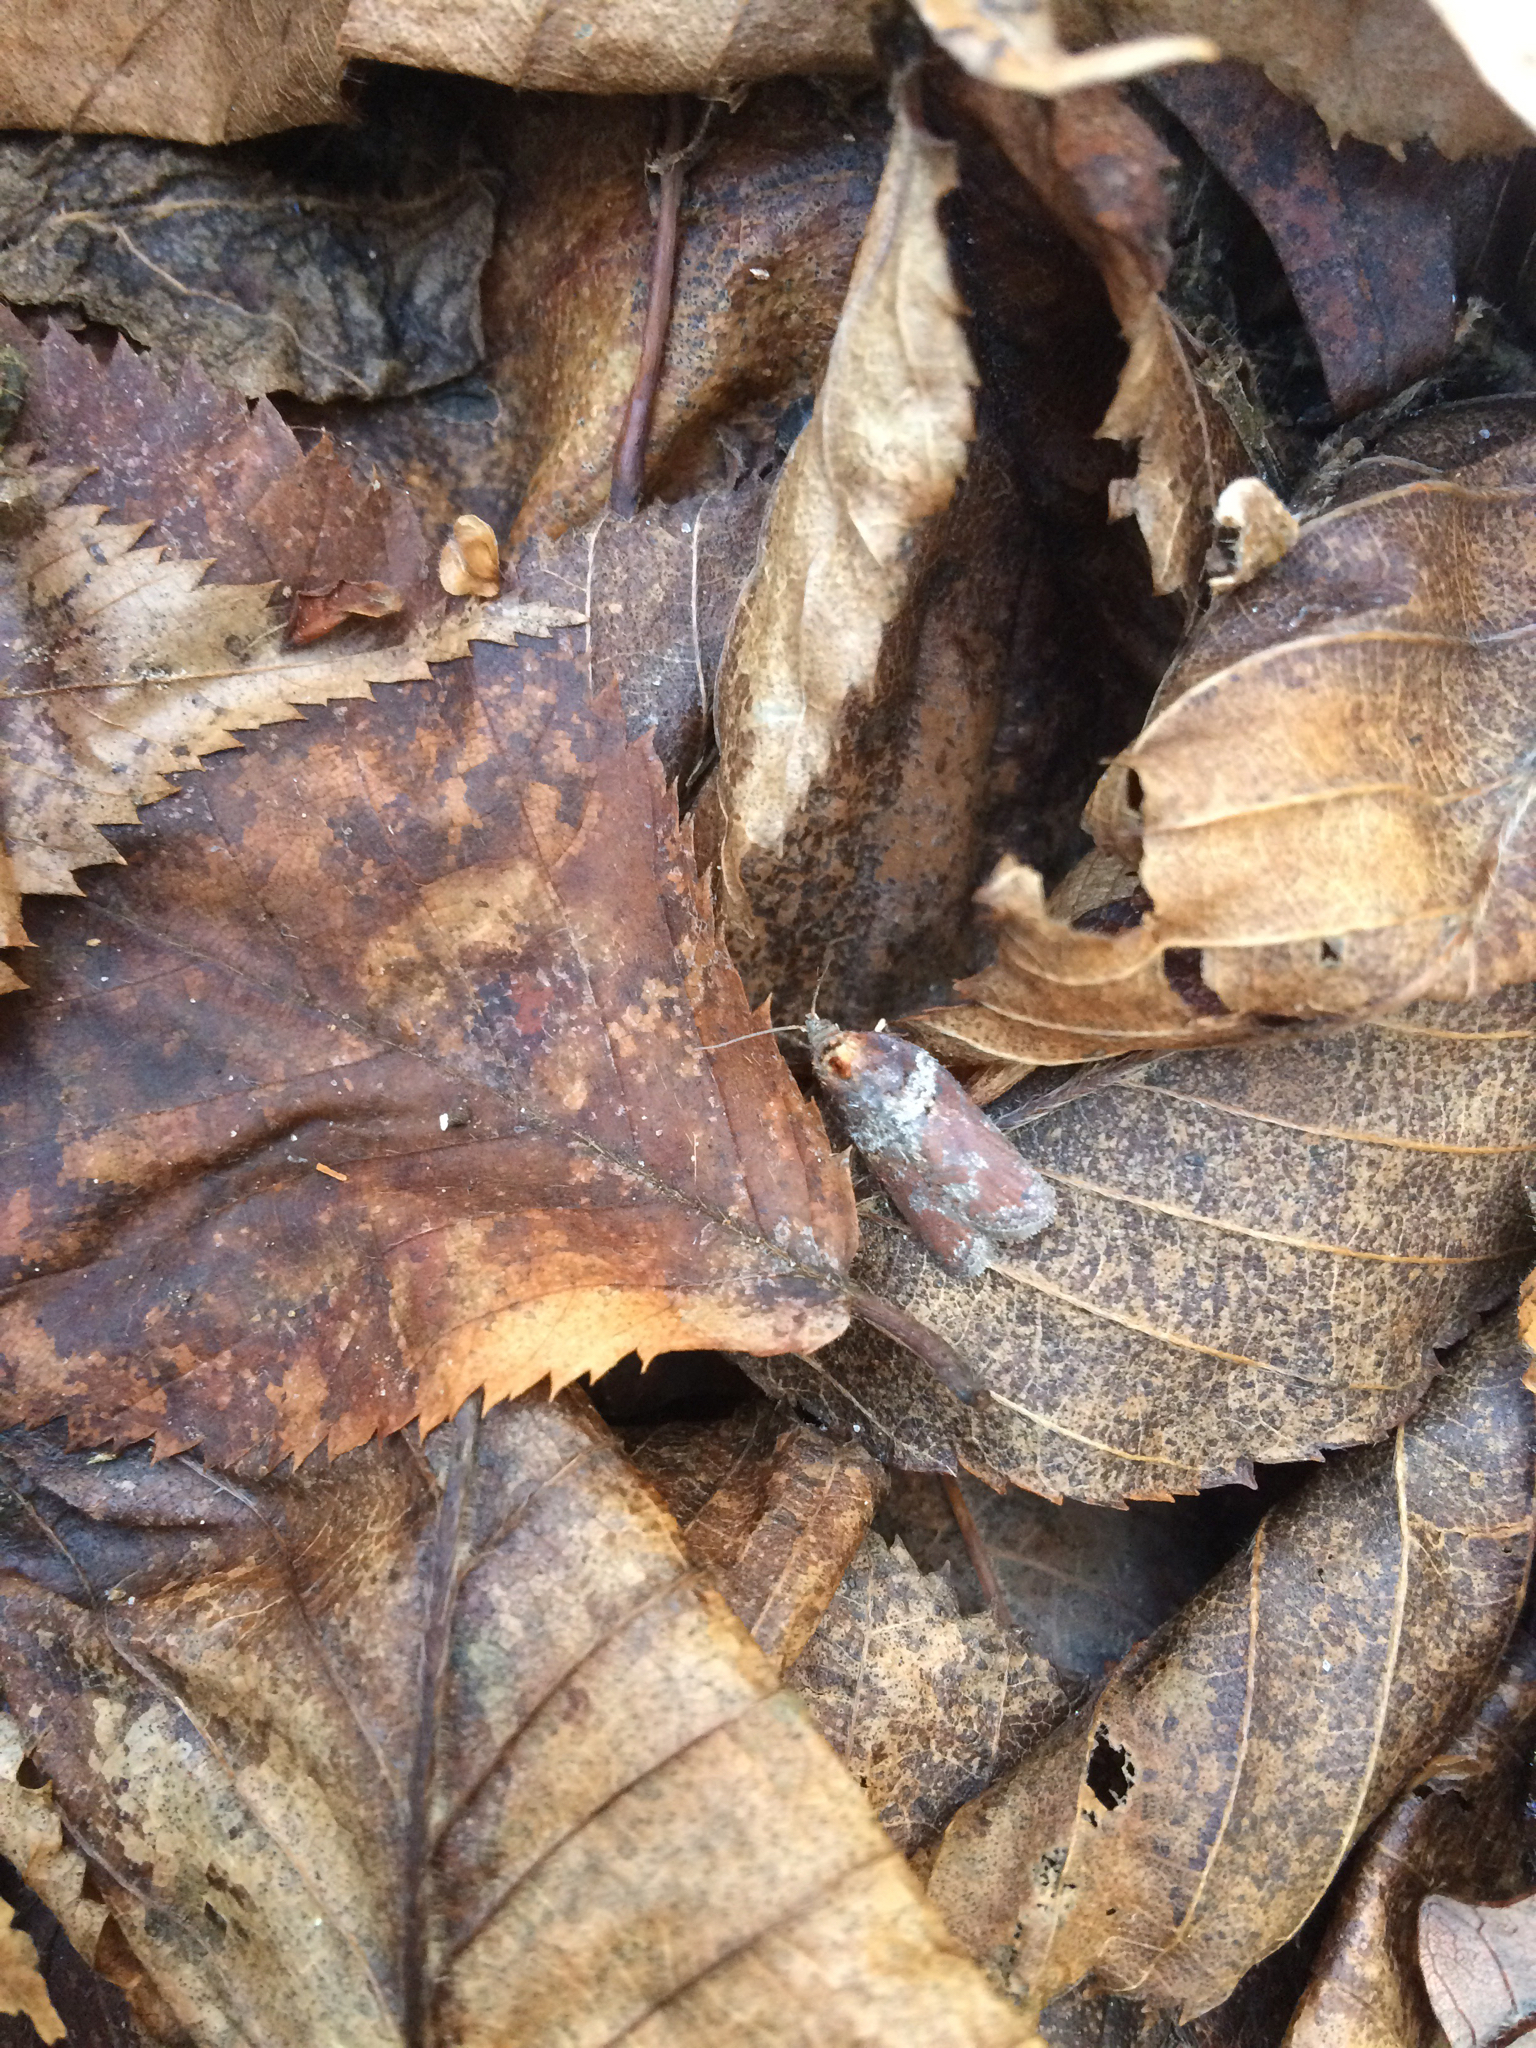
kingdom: Animalia
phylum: Arthropoda
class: Insecta
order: Lepidoptera
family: Tortricidae
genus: Acleris
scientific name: Acleris celiana
